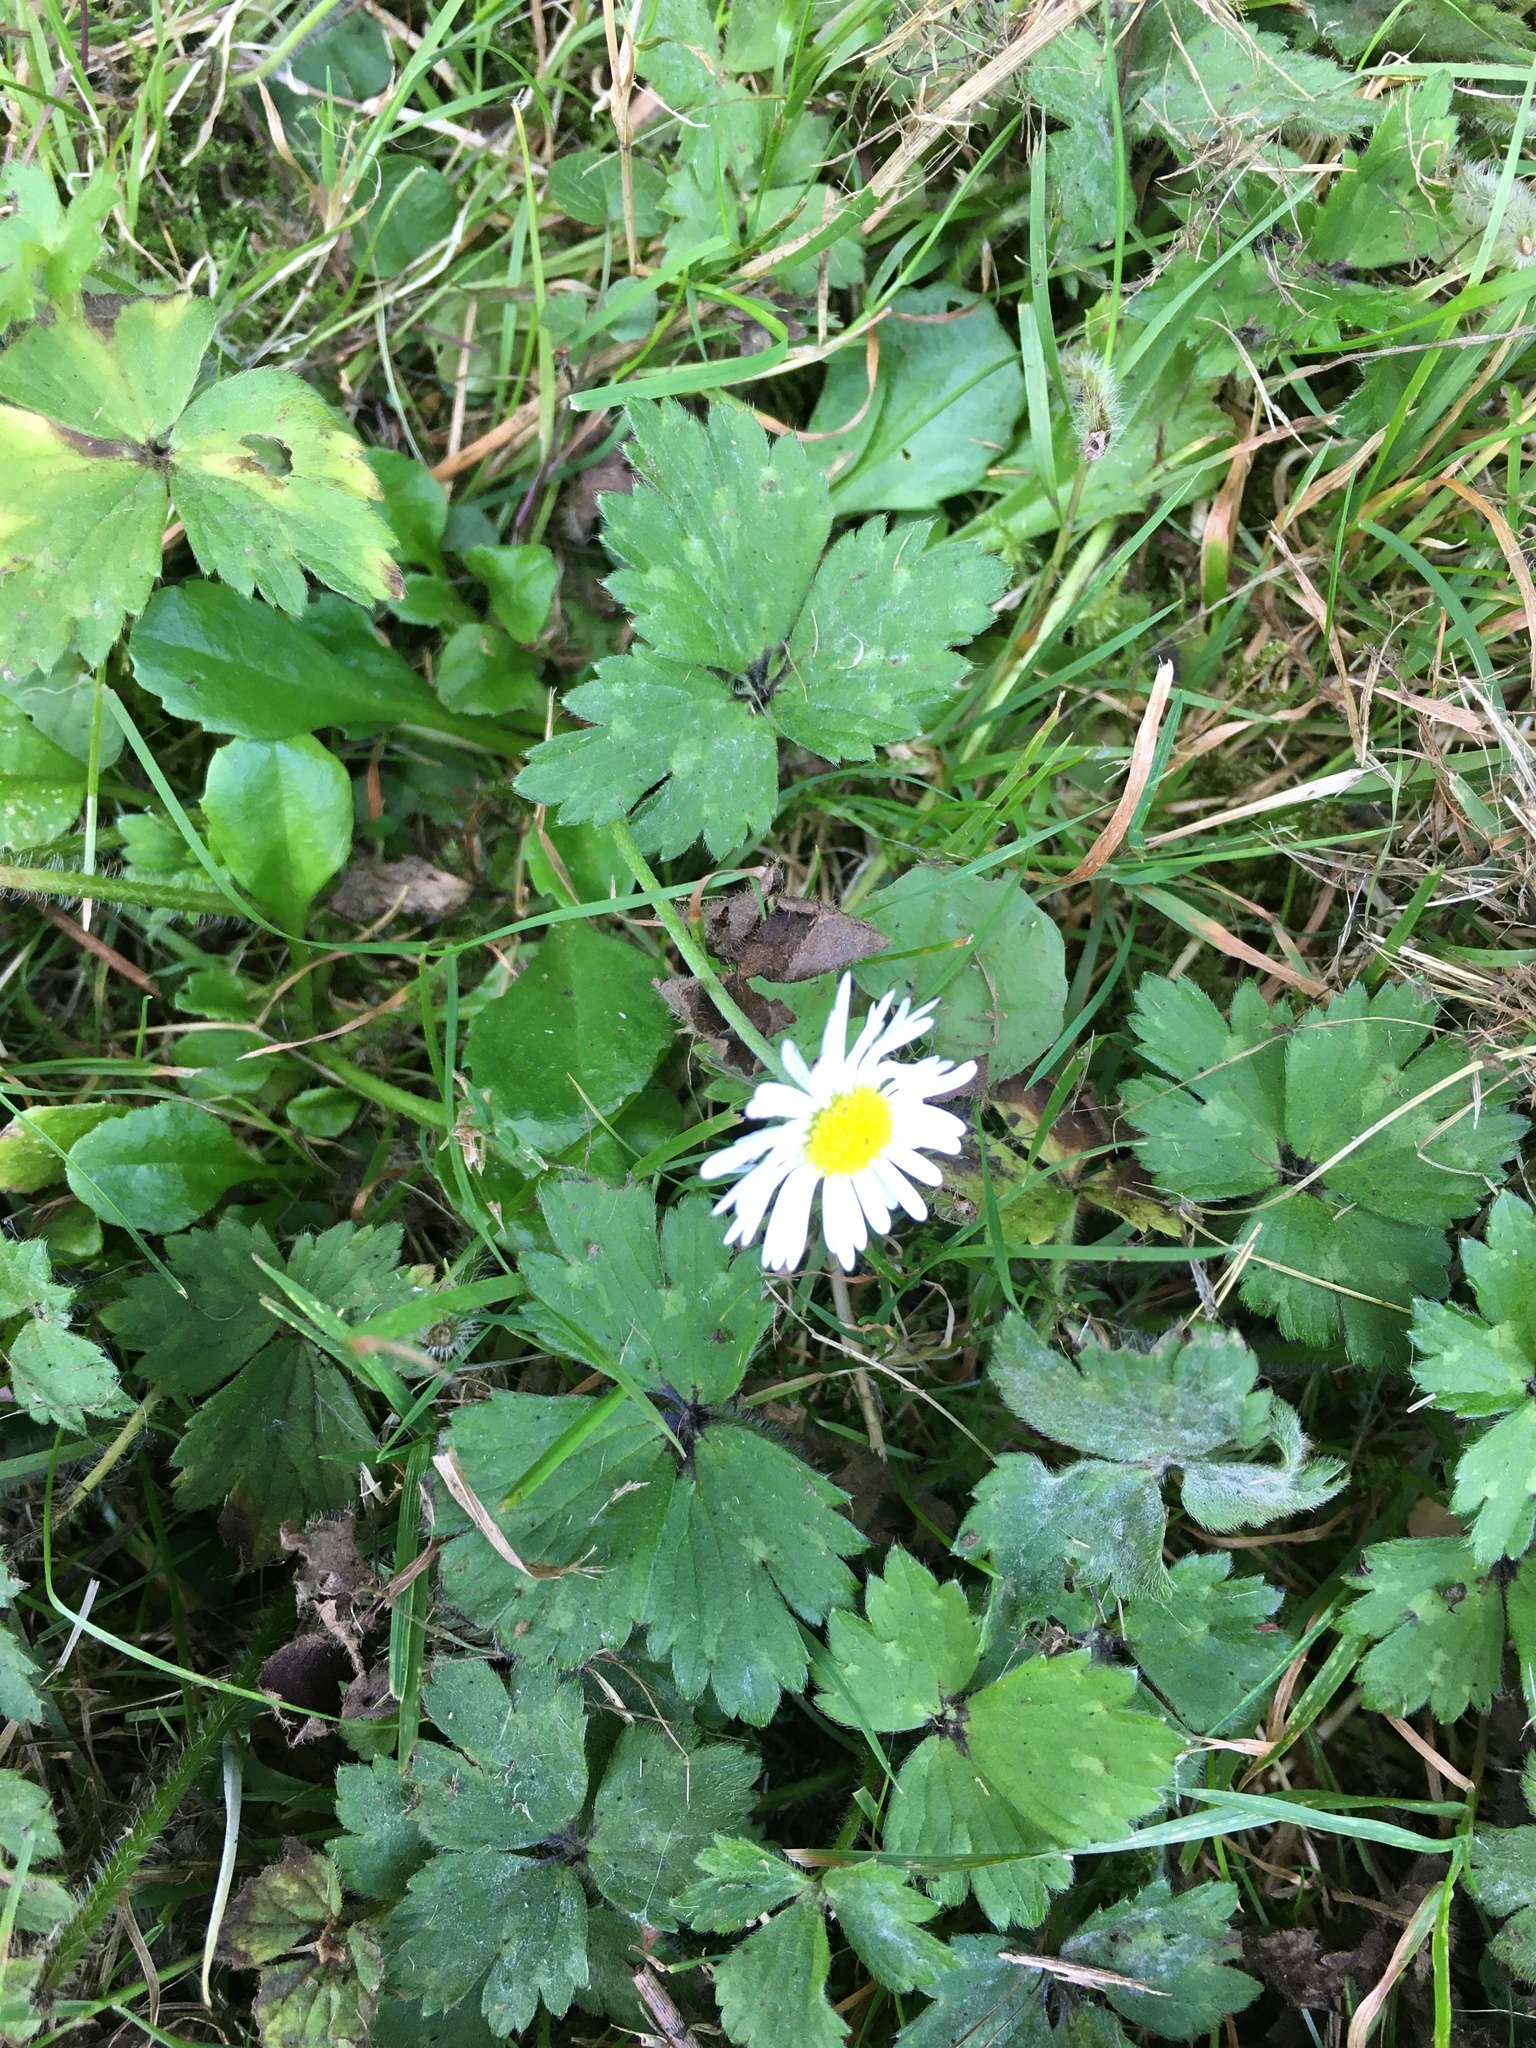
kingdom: Plantae
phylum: Tracheophyta
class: Magnoliopsida
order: Asterales
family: Asteraceae
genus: Bellis
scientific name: Bellis perennis
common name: Lawndaisy
